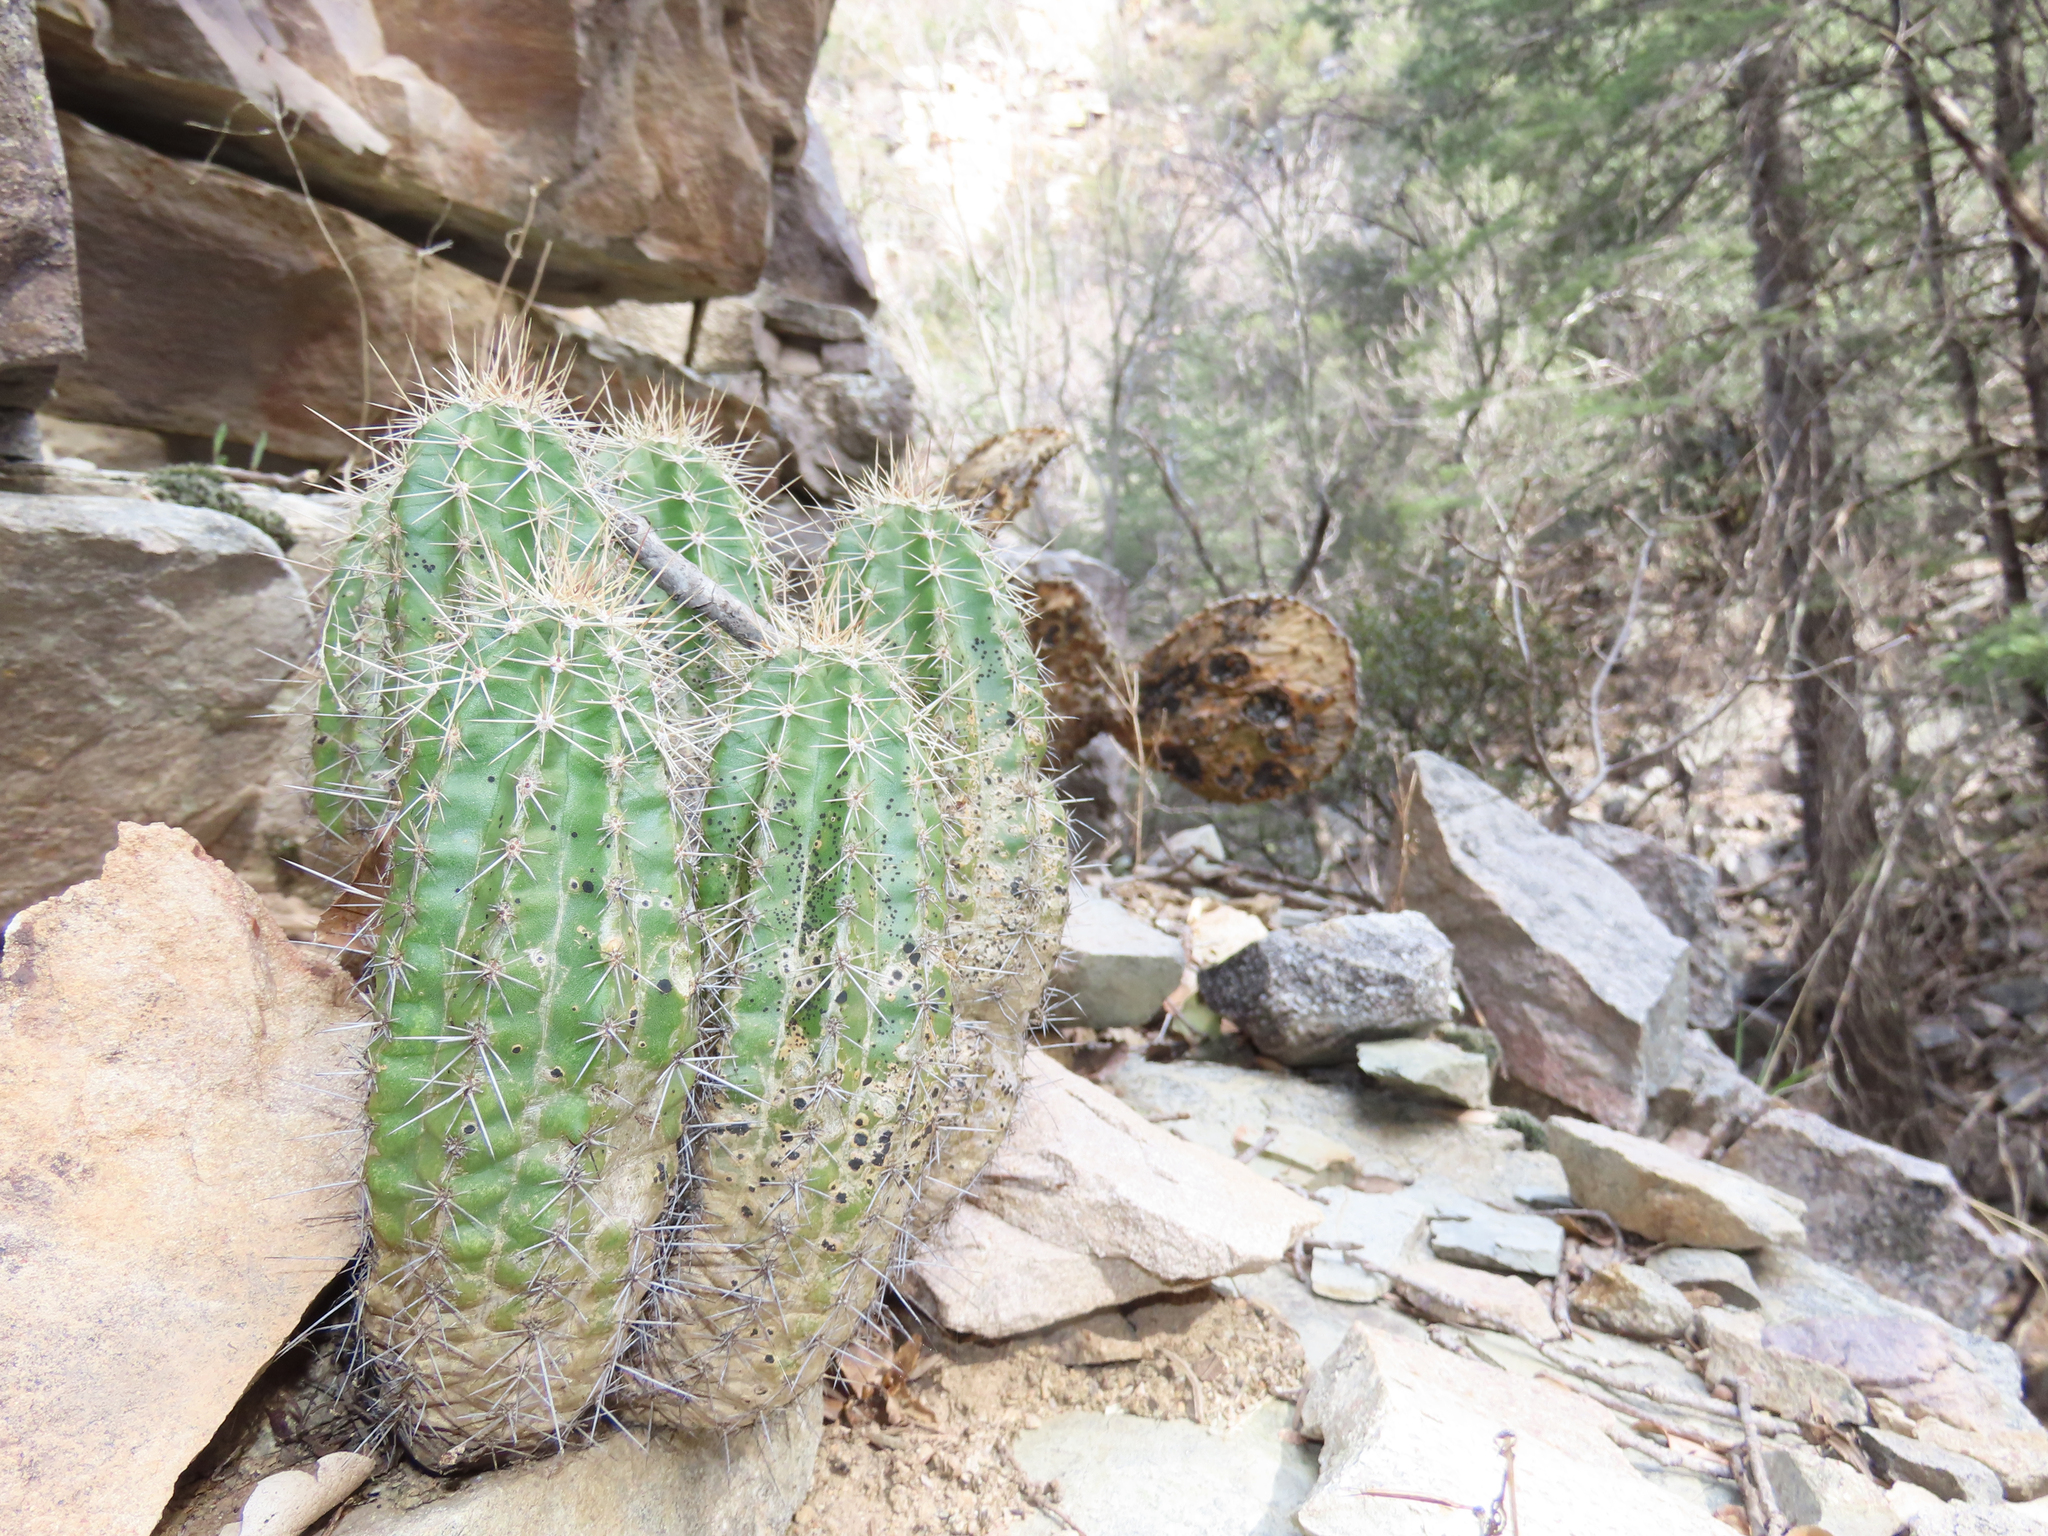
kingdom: Plantae
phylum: Tracheophyta
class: Magnoliopsida
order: Caryophyllales
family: Cactaceae
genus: Echinocereus
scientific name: Echinocereus coccineus
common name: Scarlet hedgehog cactus
